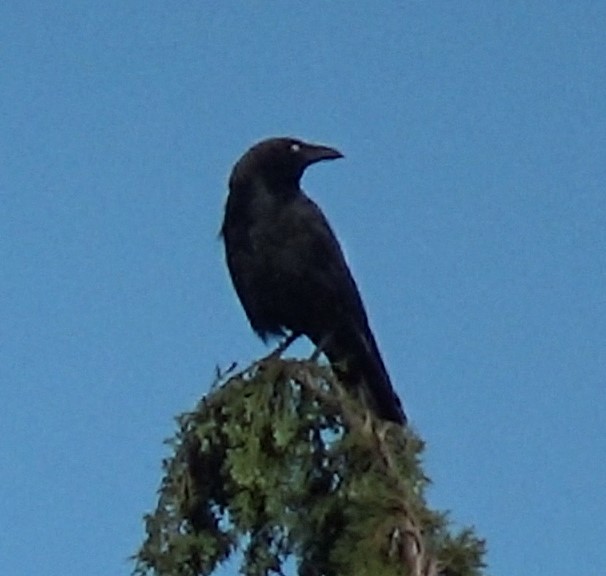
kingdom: Animalia
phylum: Chordata
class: Aves
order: Passeriformes
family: Corvidae
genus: Corvus
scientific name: Corvus corone
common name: Carrion crow
